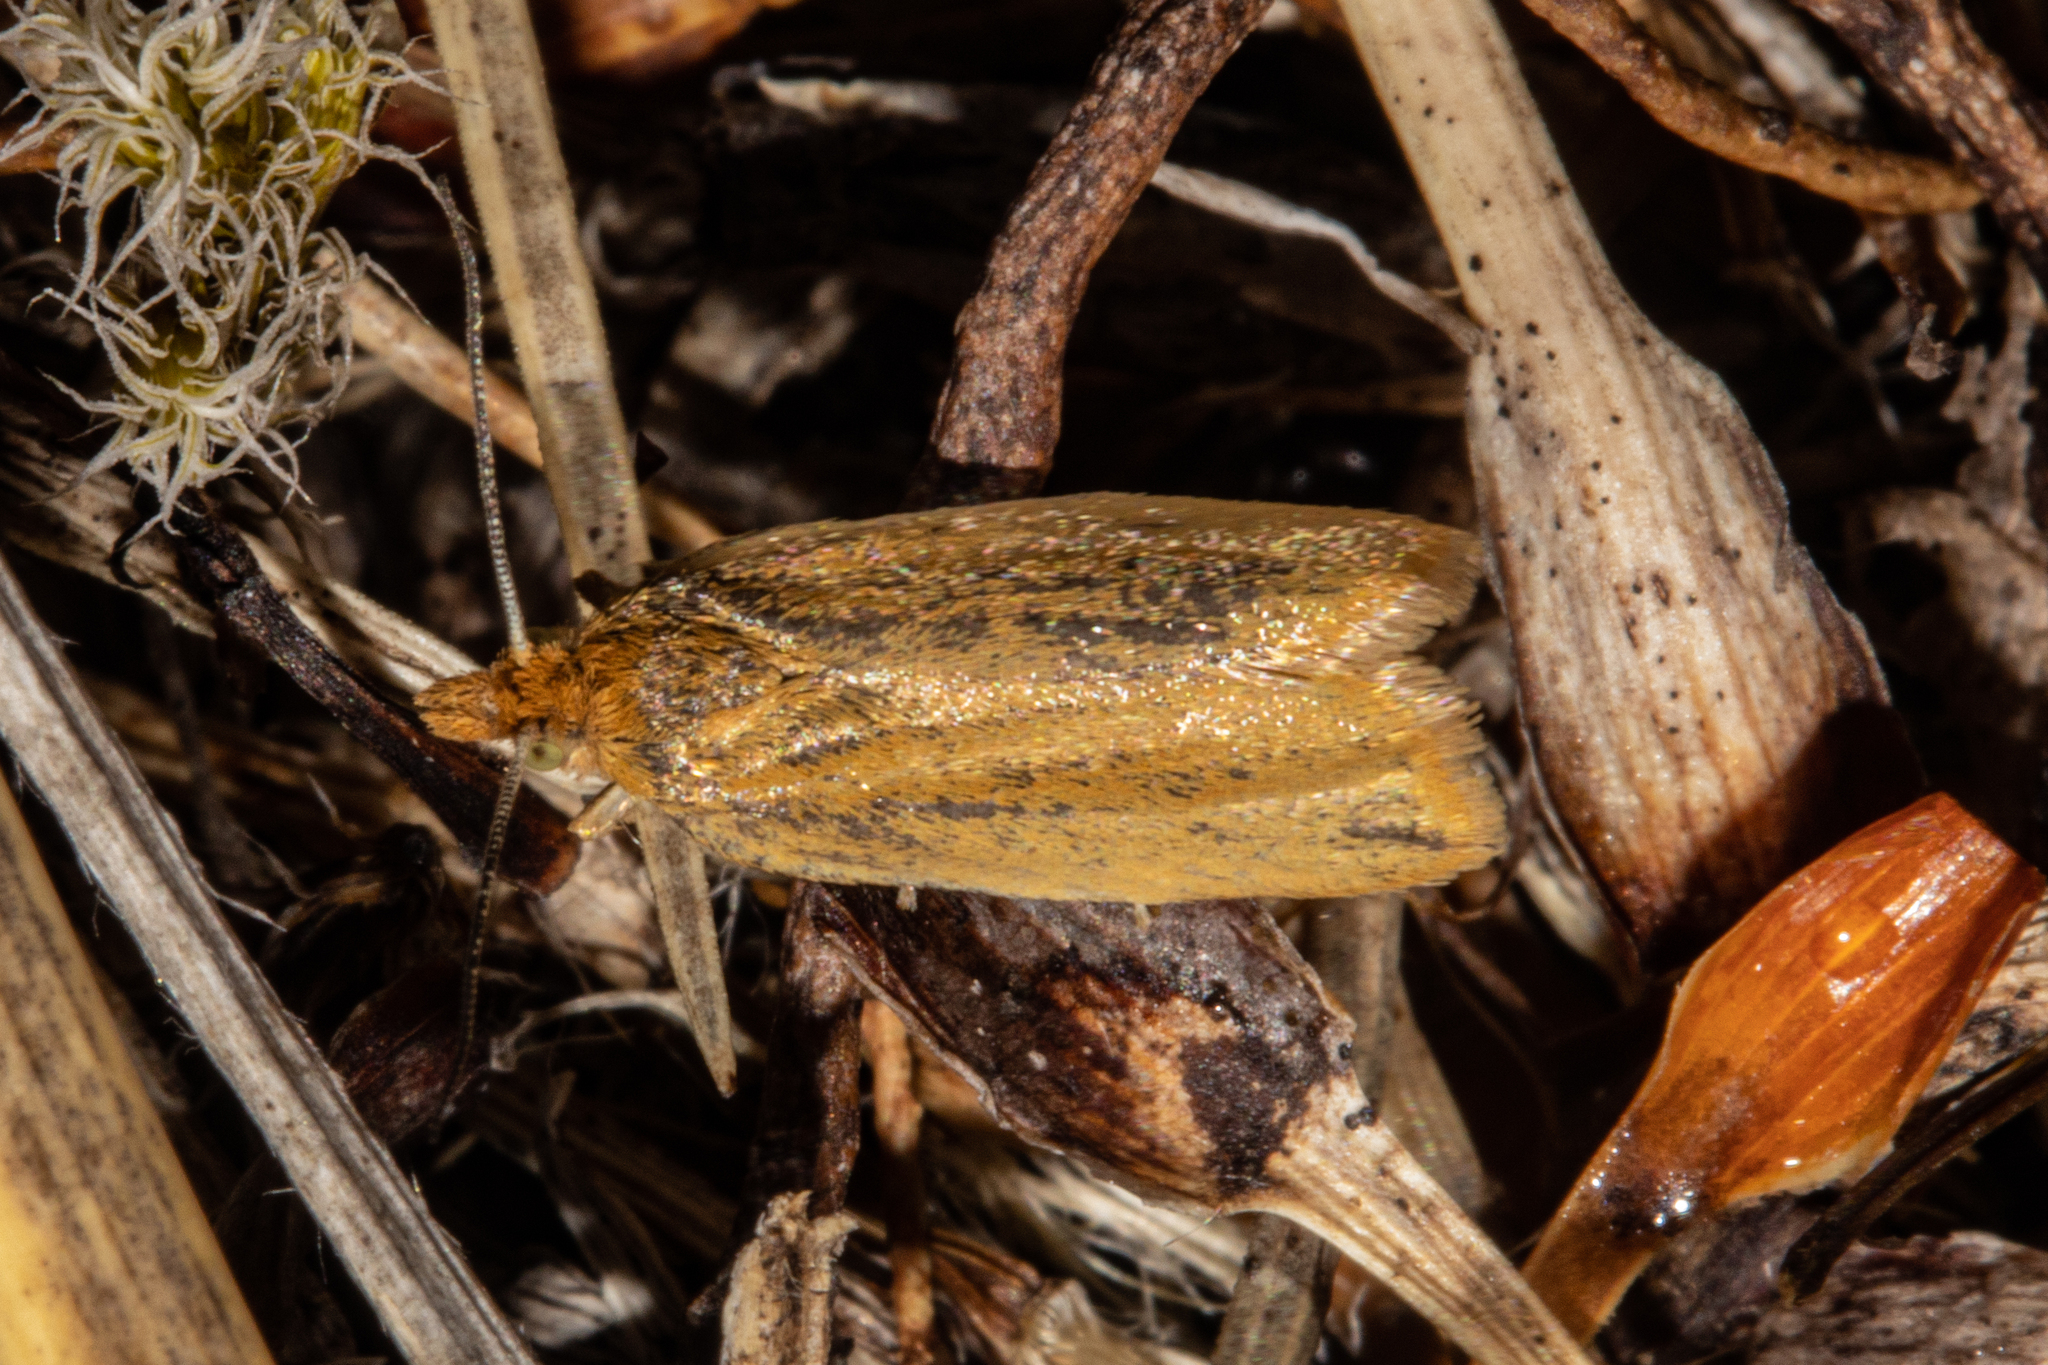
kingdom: Animalia
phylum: Arthropoda
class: Insecta
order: Lepidoptera
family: Tortricidae
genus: Ascerodes
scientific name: Ascerodes prochlora
